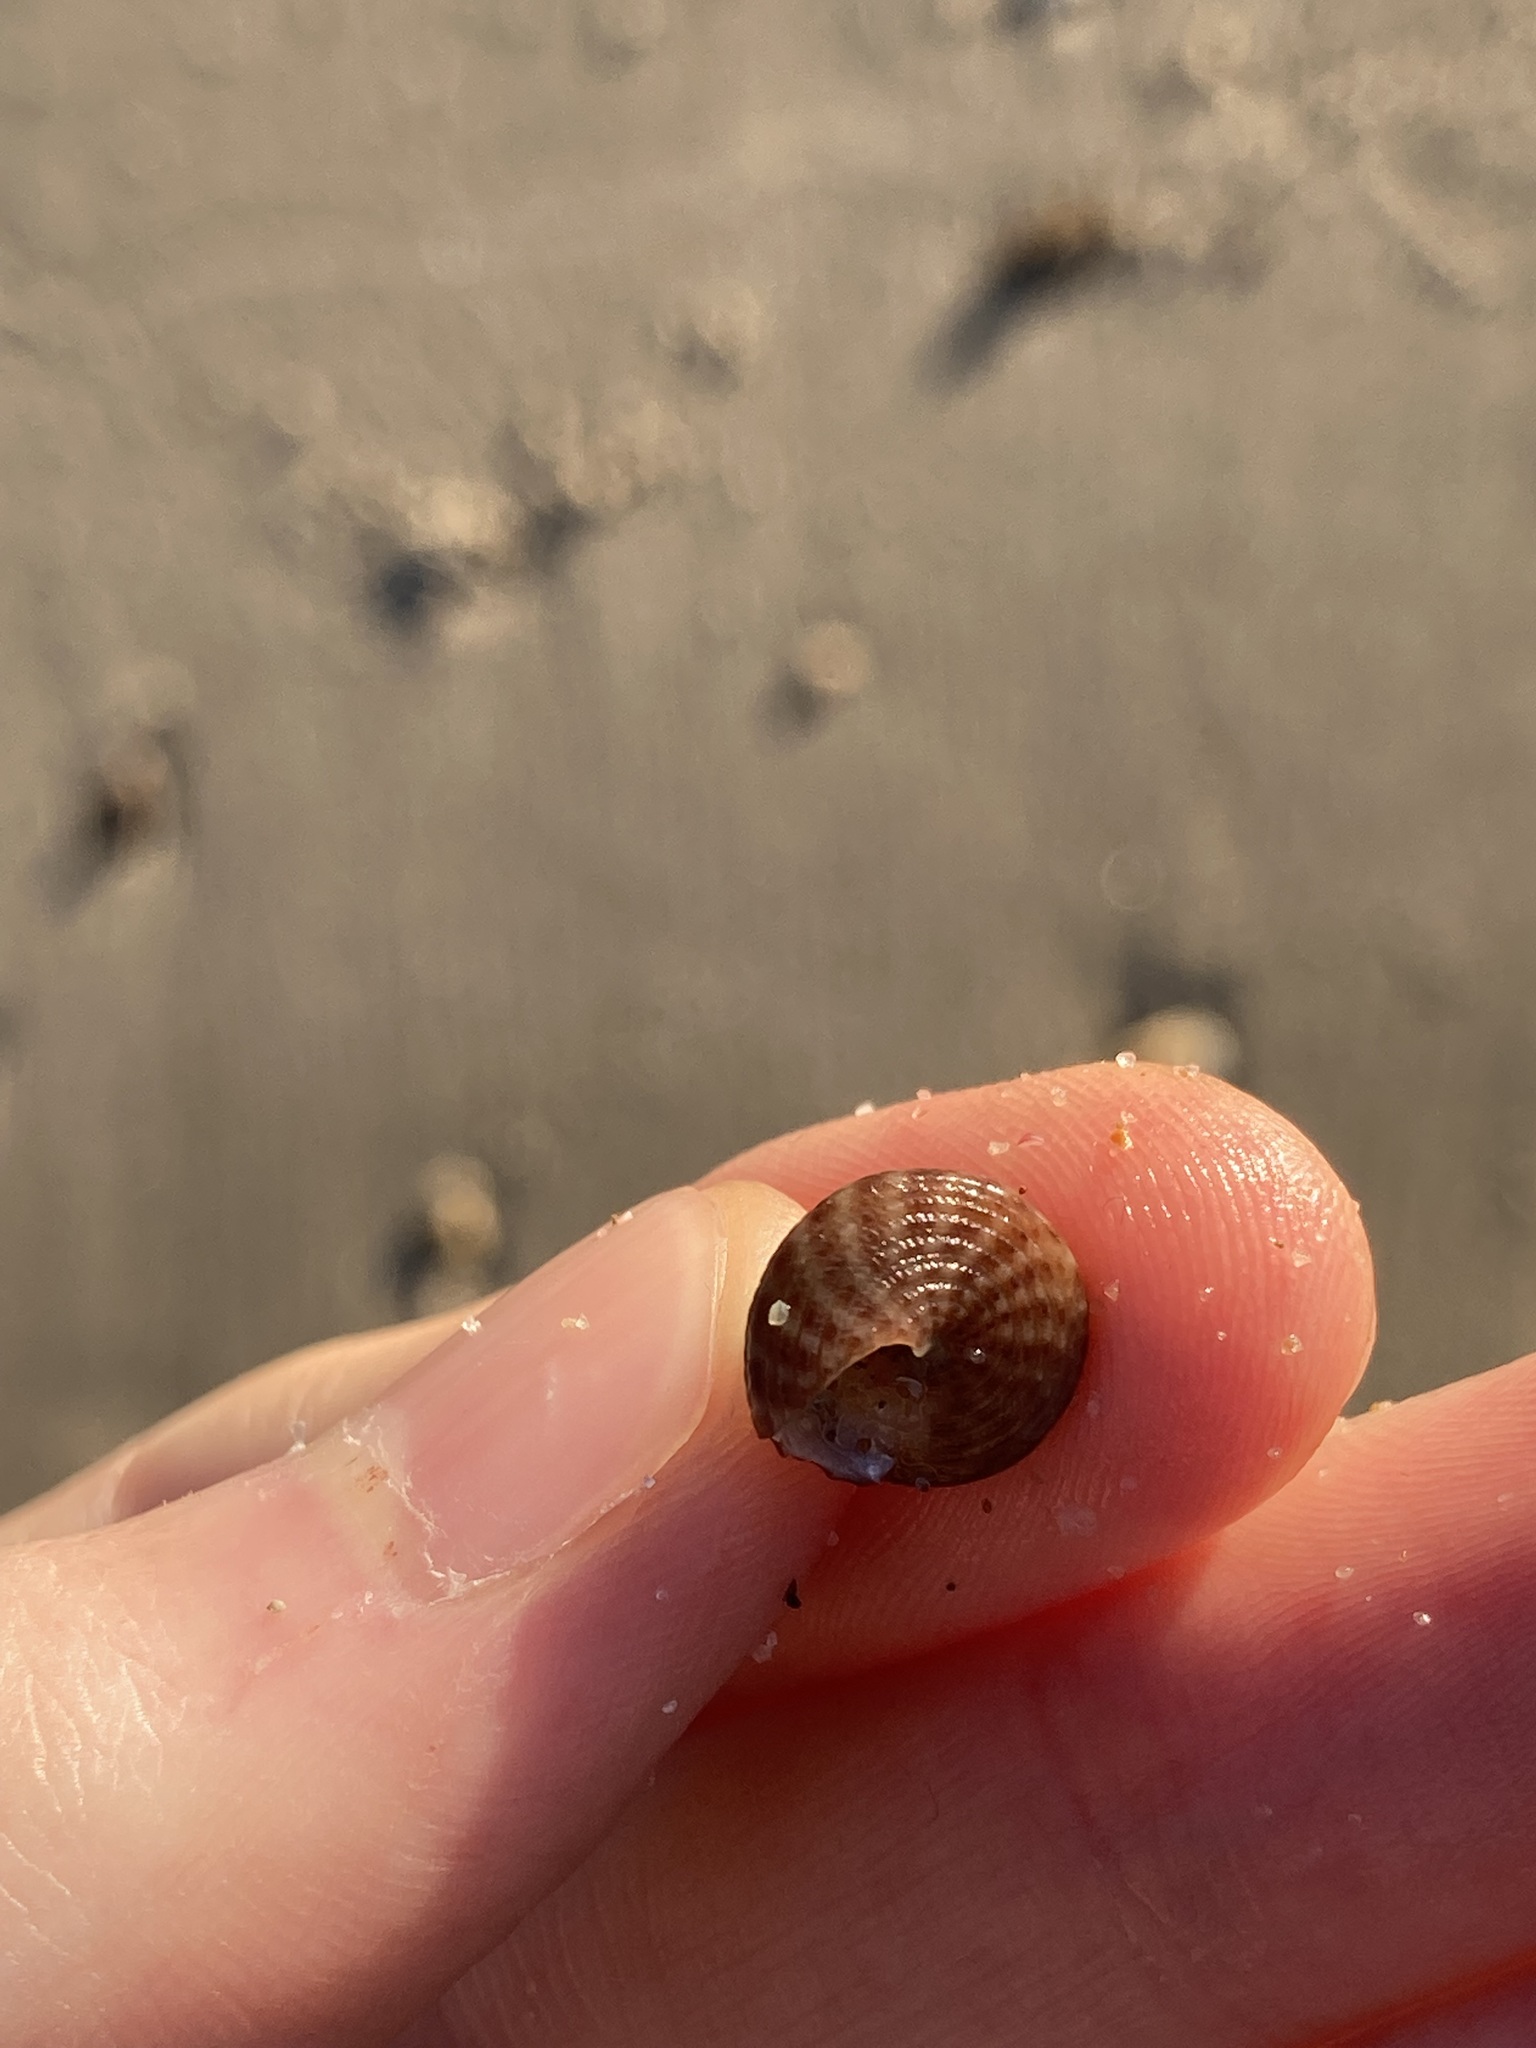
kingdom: Animalia
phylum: Mollusca
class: Gastropoda
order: Trochida
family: Trochidae
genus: Calthalotia
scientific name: Calthalotia fragum
